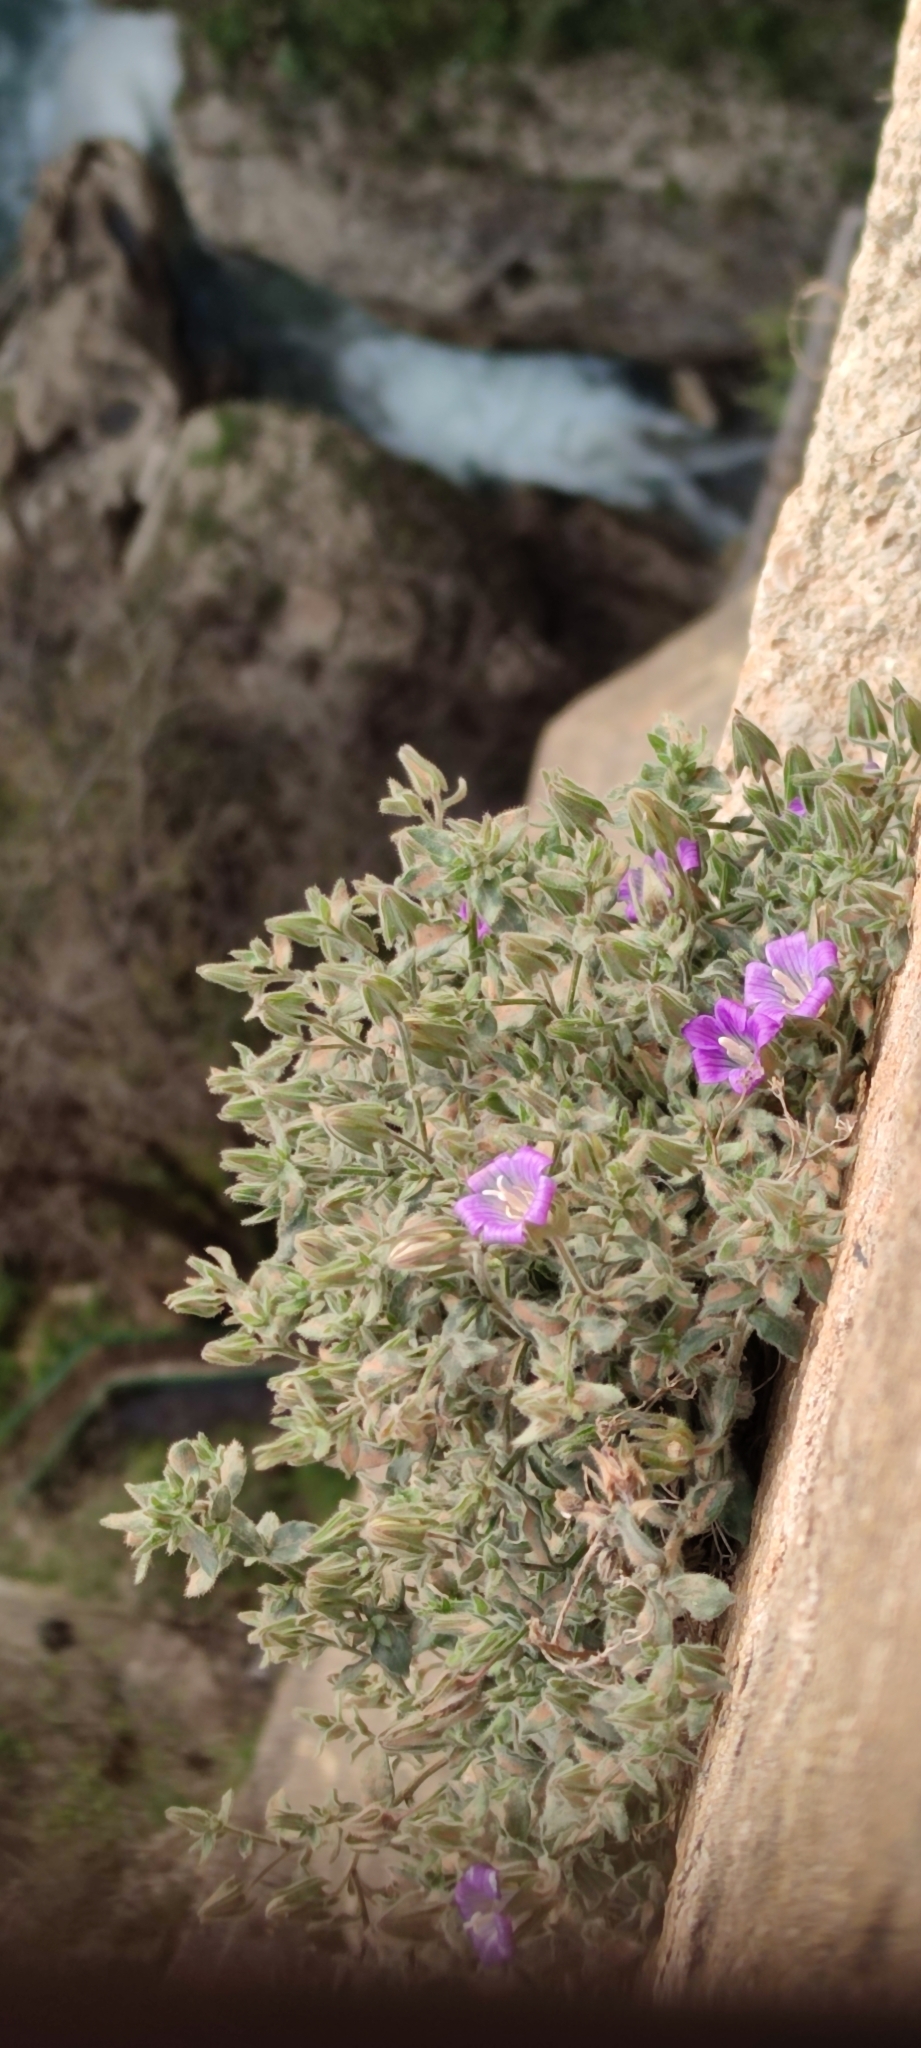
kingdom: Plantae
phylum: Tracheophyta
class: Magnoliopsida
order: Asterales
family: Campanulaceae
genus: Campanula
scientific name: Campanula mollis
